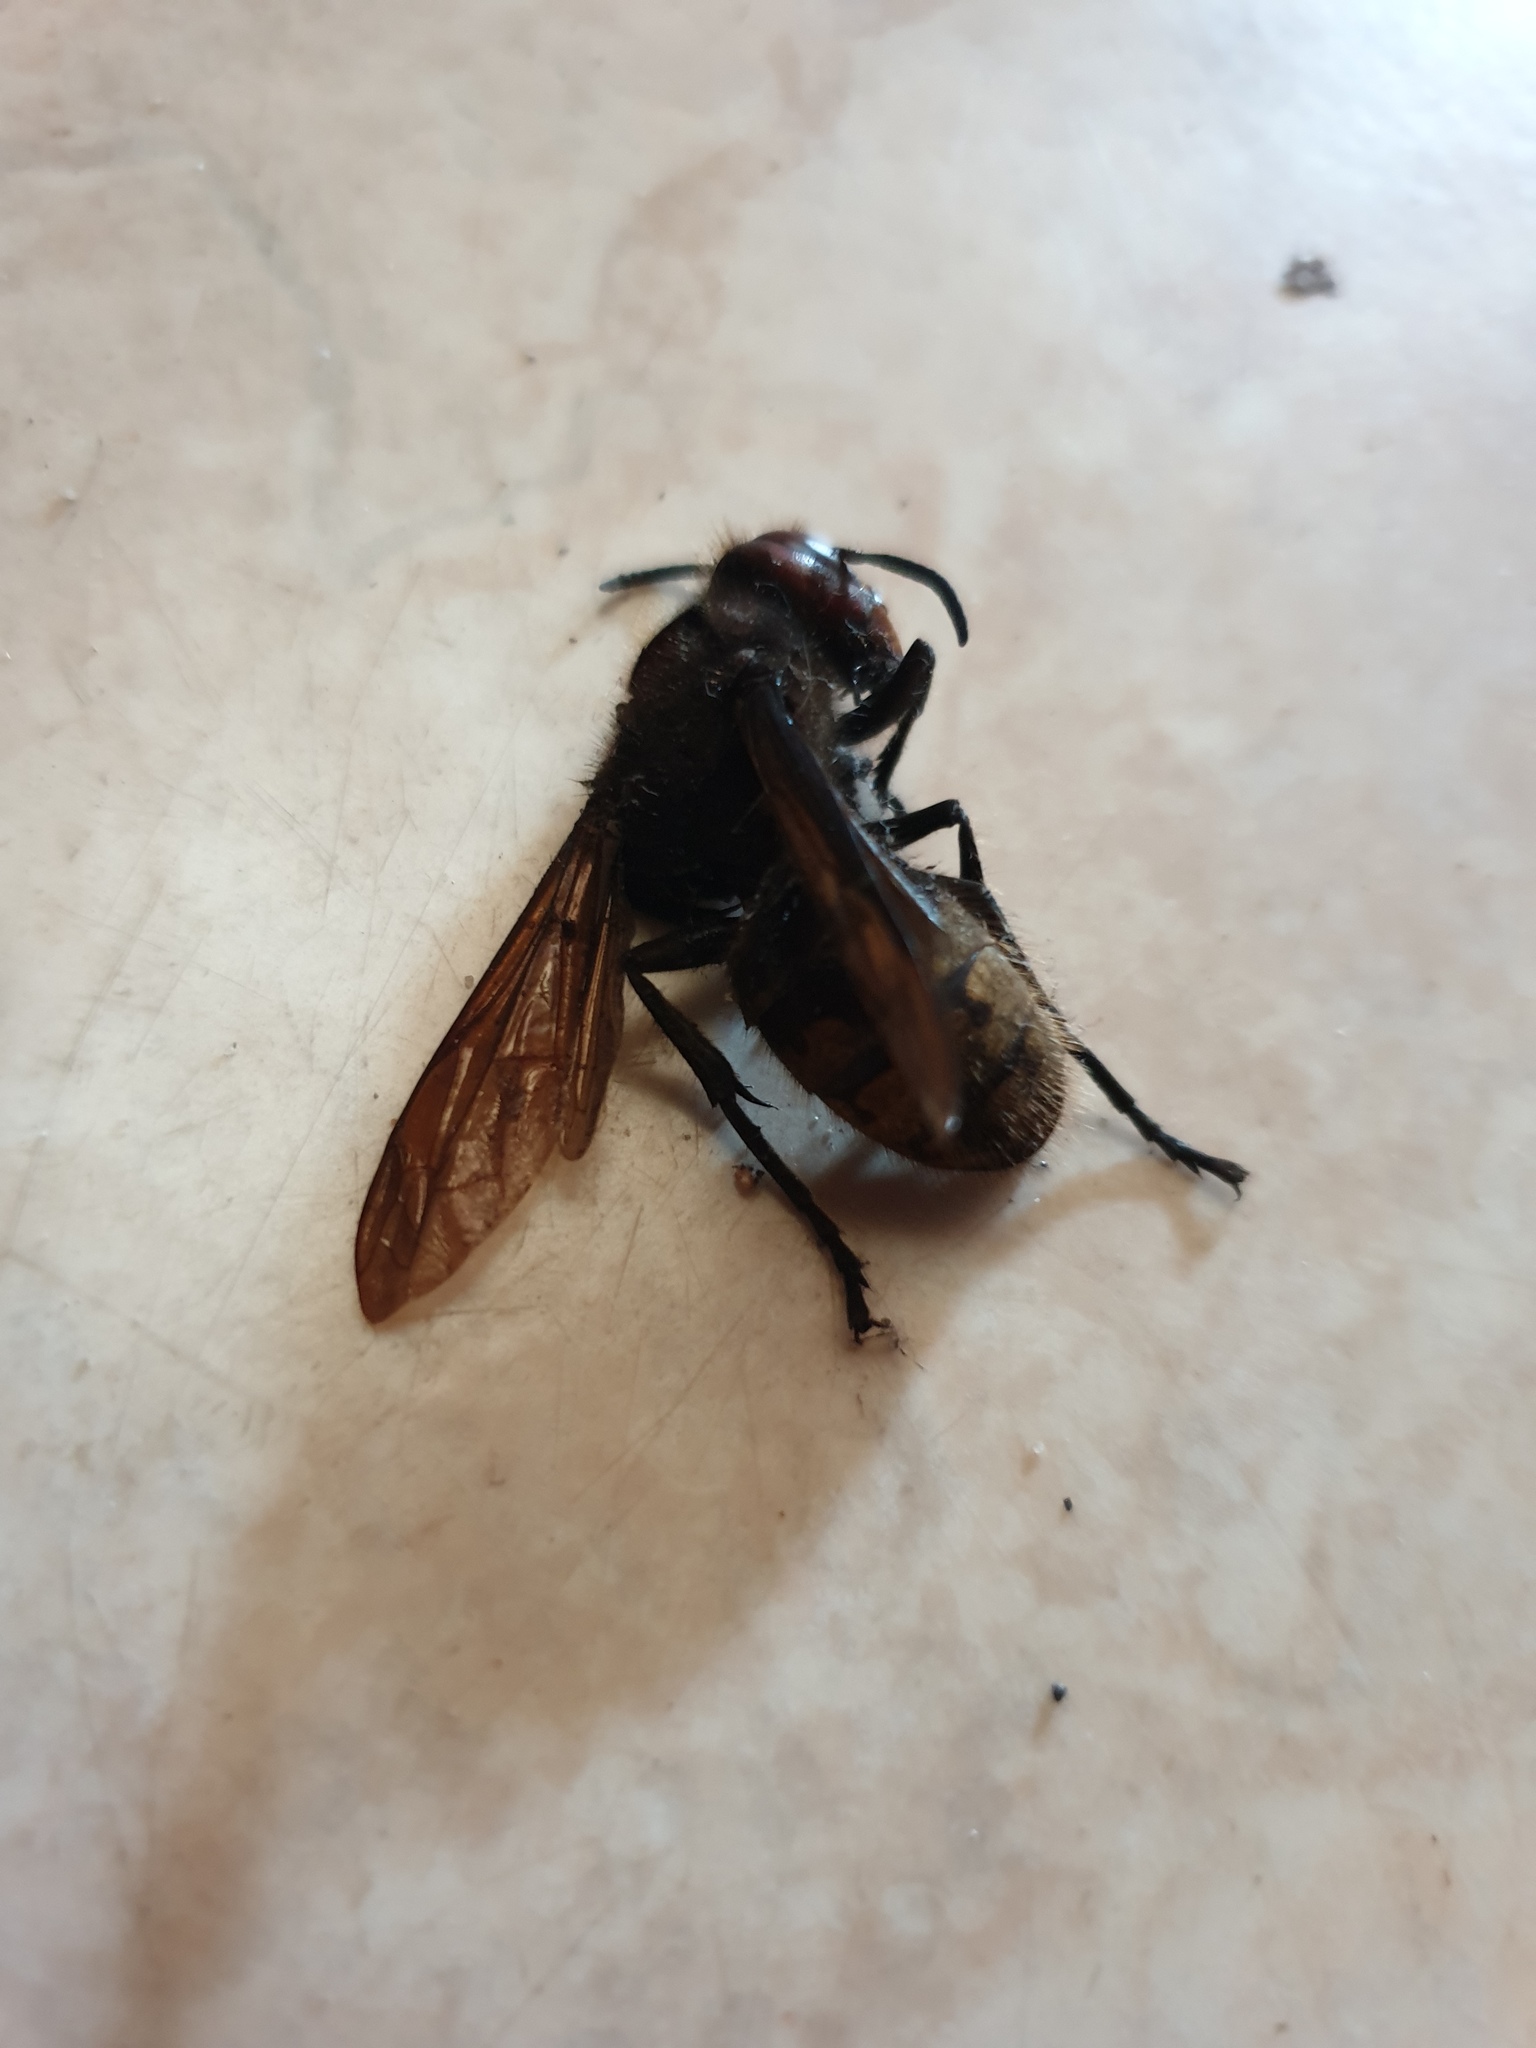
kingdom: Animalia
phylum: Arthropoda
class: Insecta
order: Hymenoptera
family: Vespidae
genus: Vespa
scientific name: Vespa crabro
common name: Hornet
